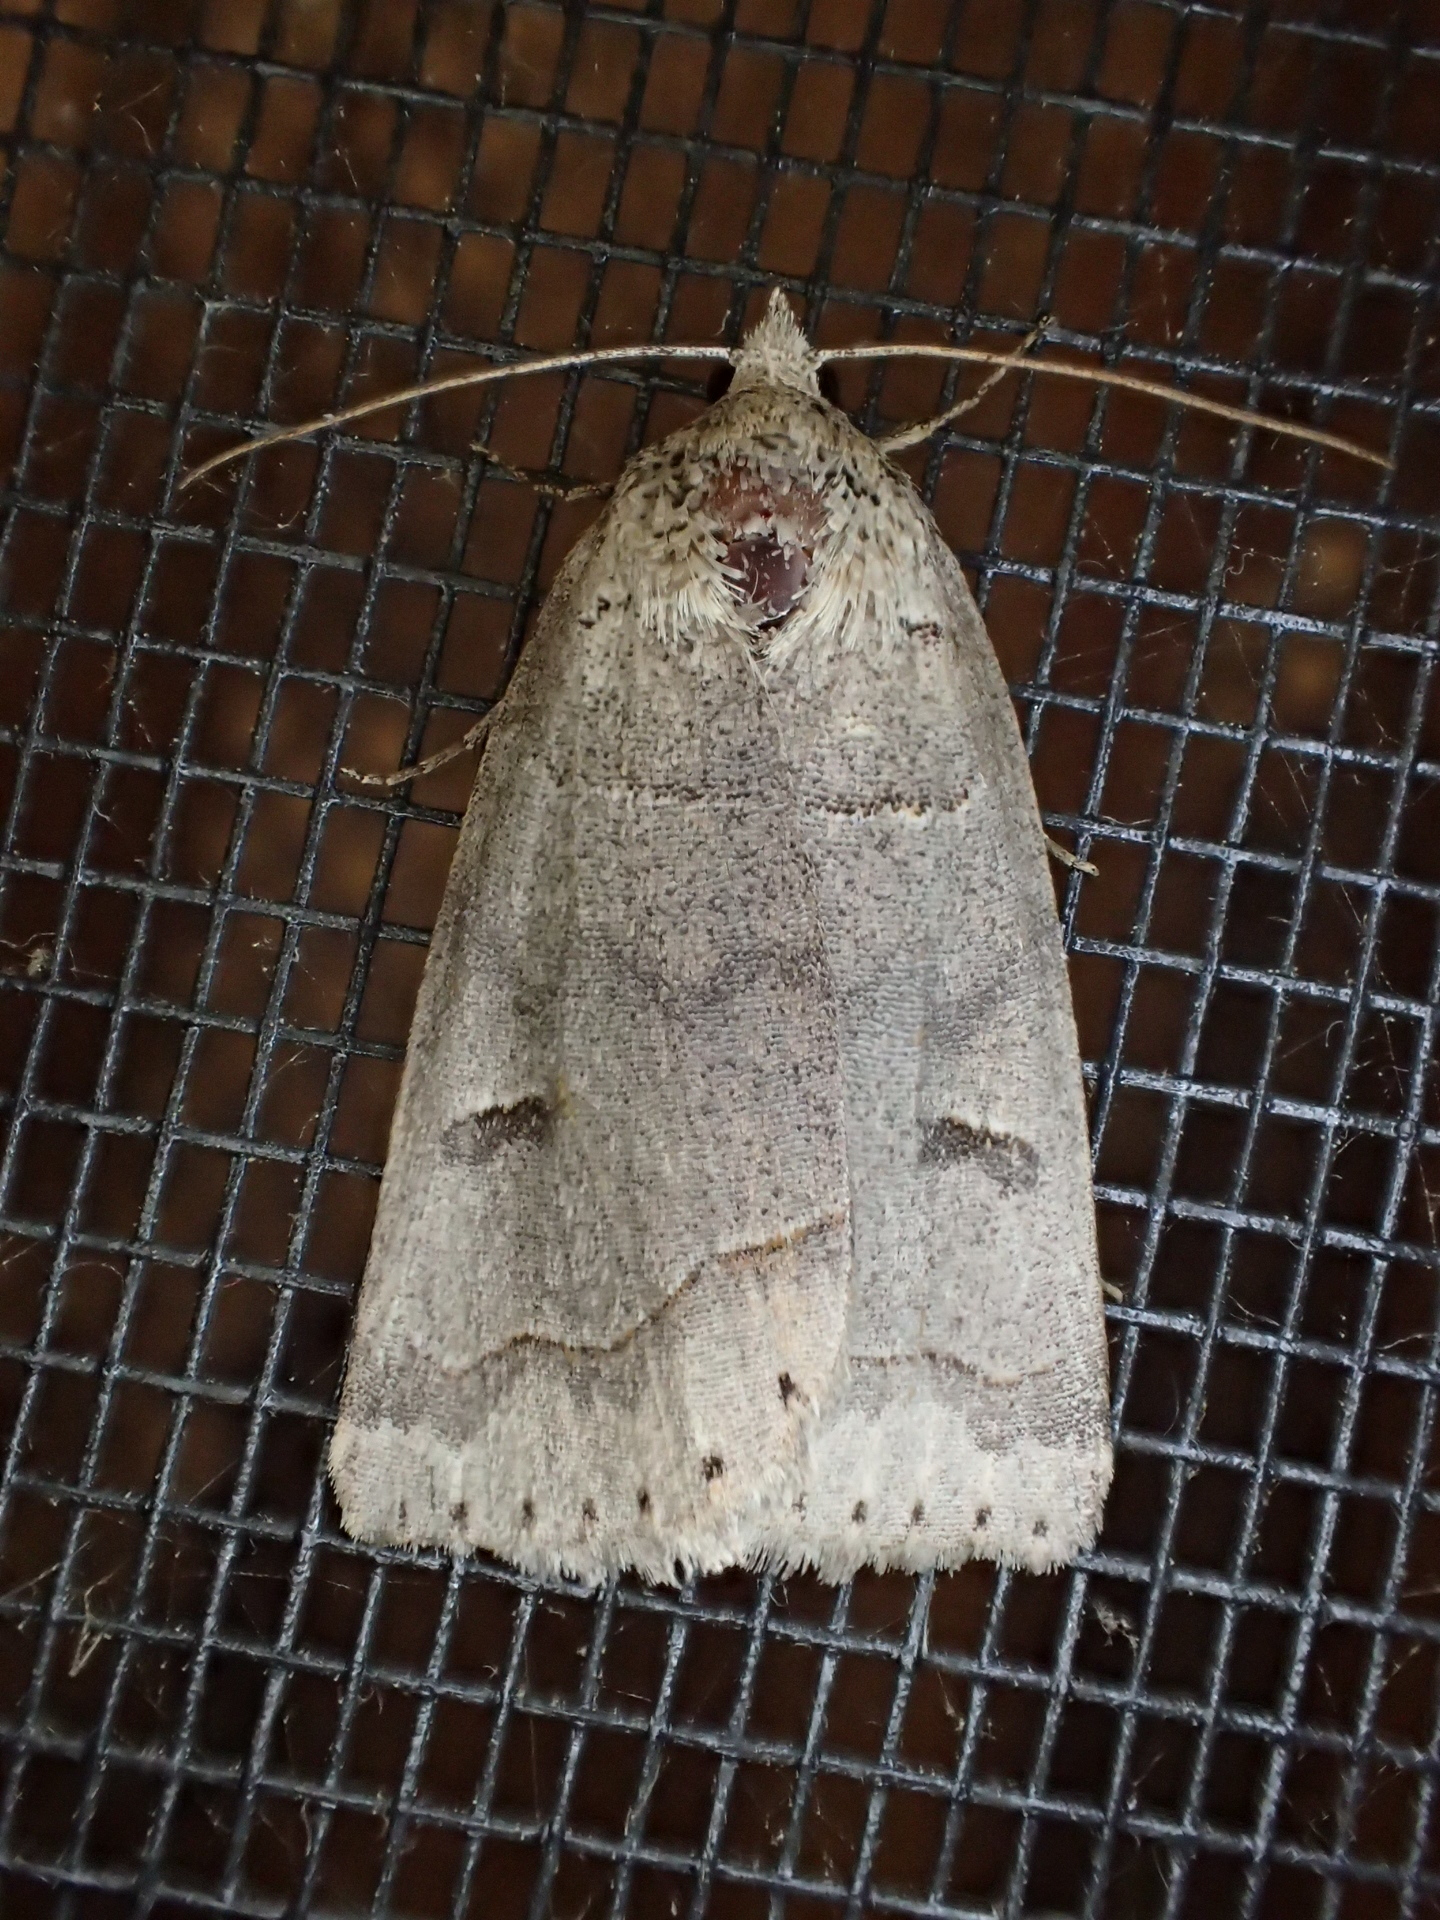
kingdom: Animalia
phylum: Arthropoda
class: Insecta
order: Lepidoptera
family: Erebidae
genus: Phoberia
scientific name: Phoberia atomaris
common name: Common oak moth
